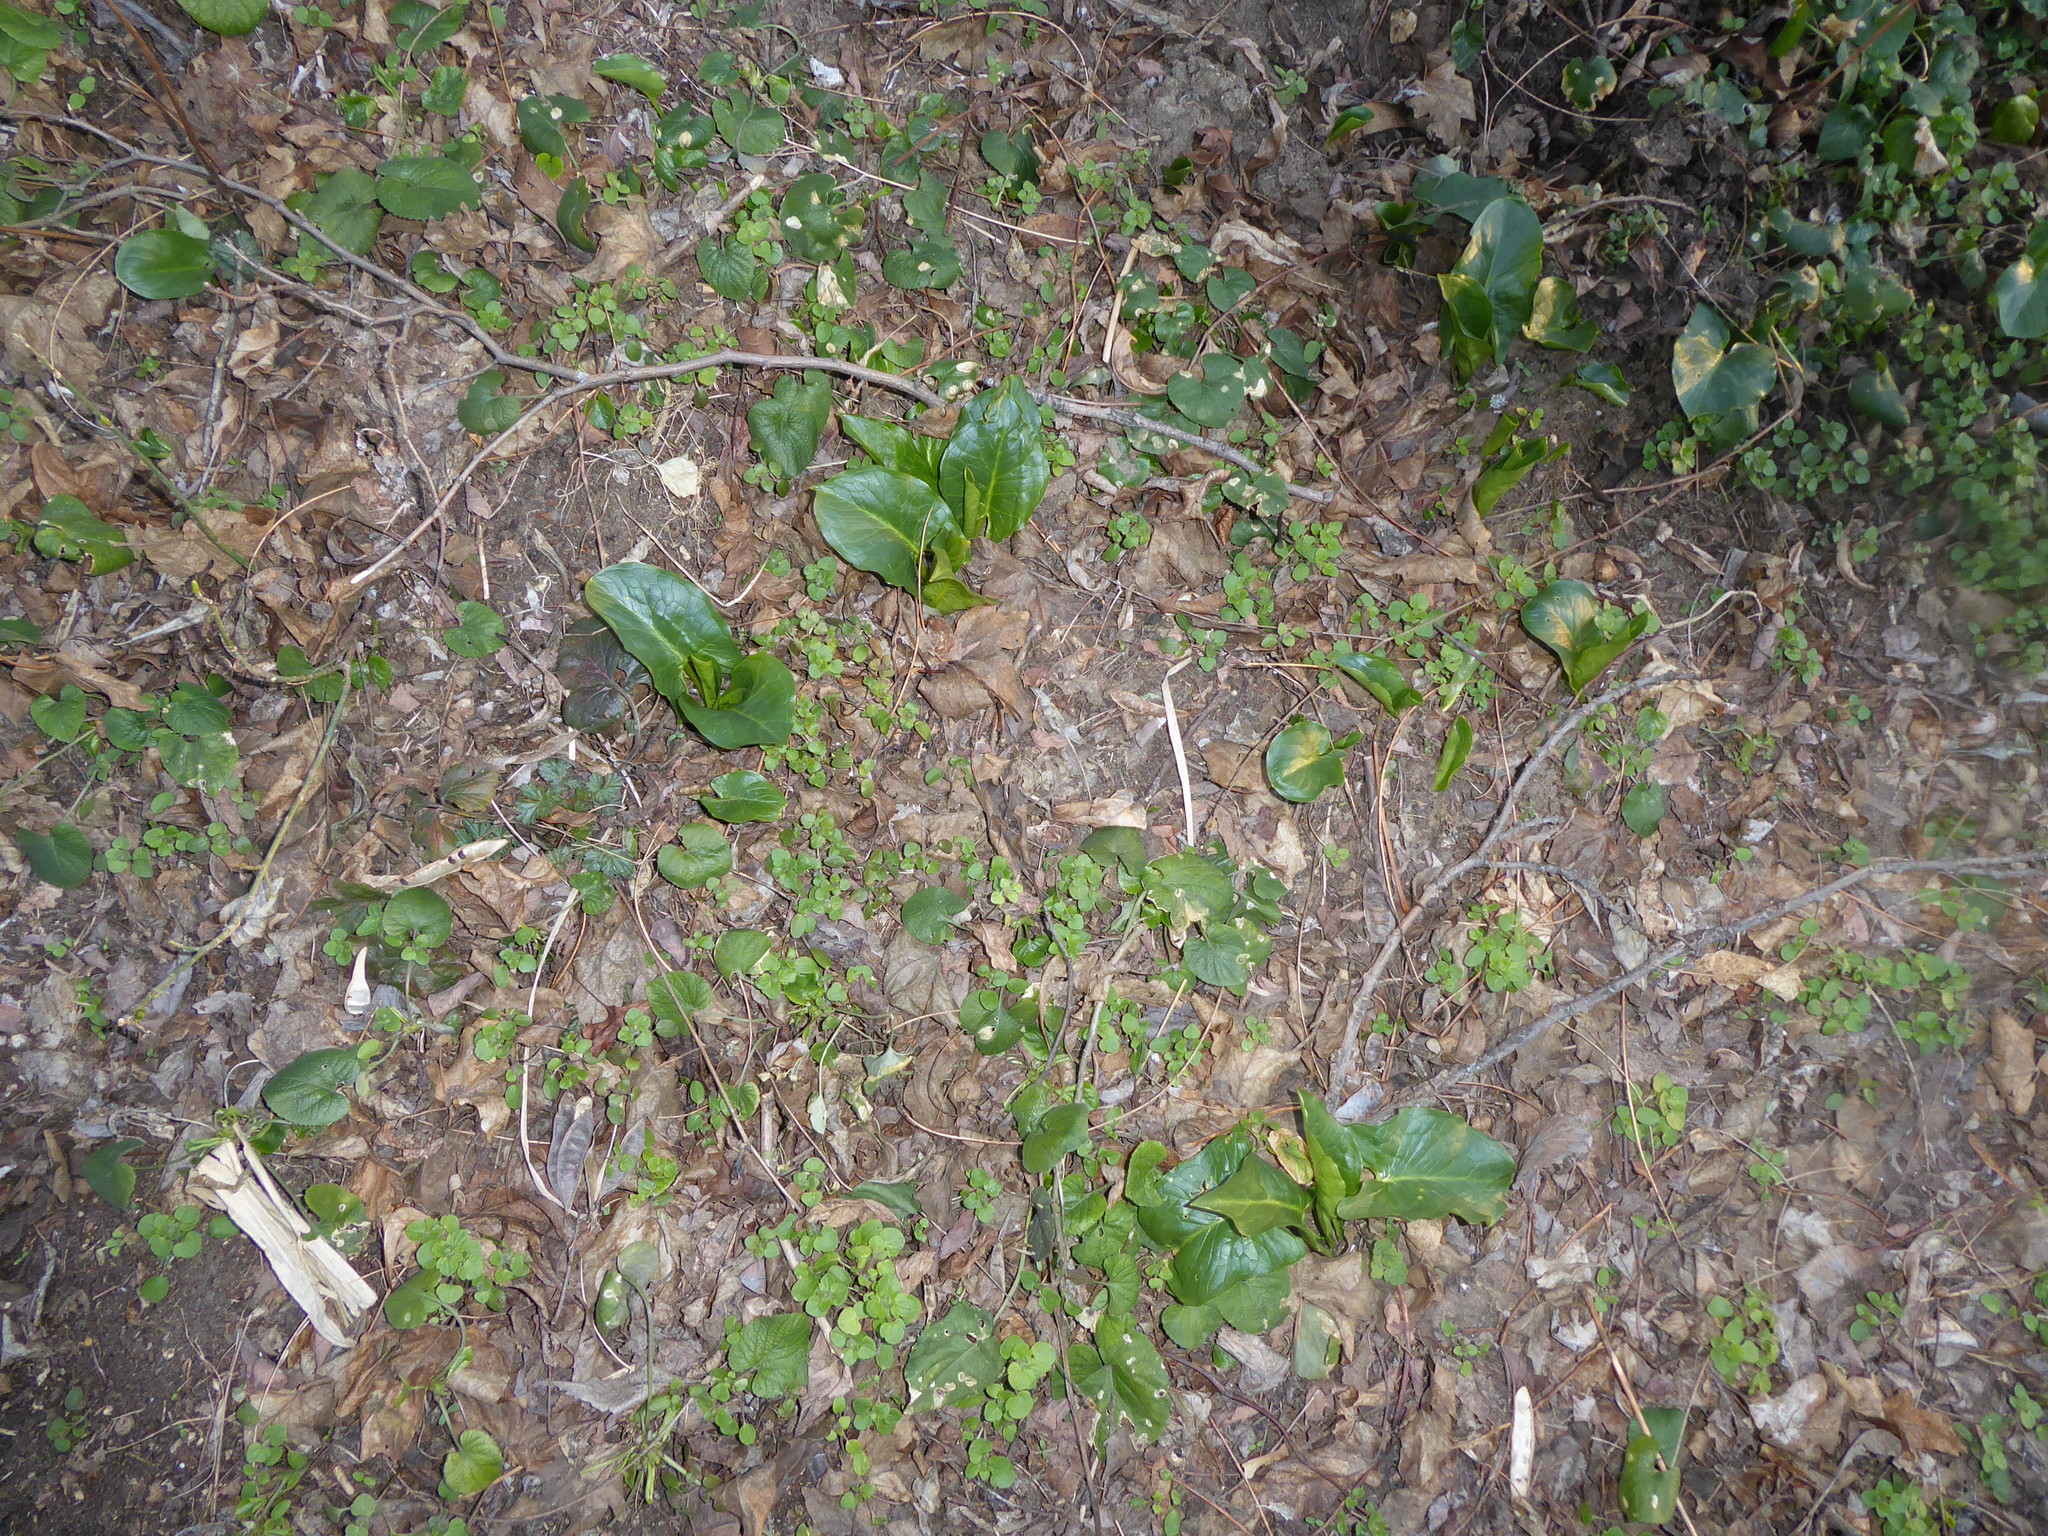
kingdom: Plantae
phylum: Tracheophyta
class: Liliopsida
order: Alismatales
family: Araceae
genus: Arum
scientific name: Arum cylindraceum
